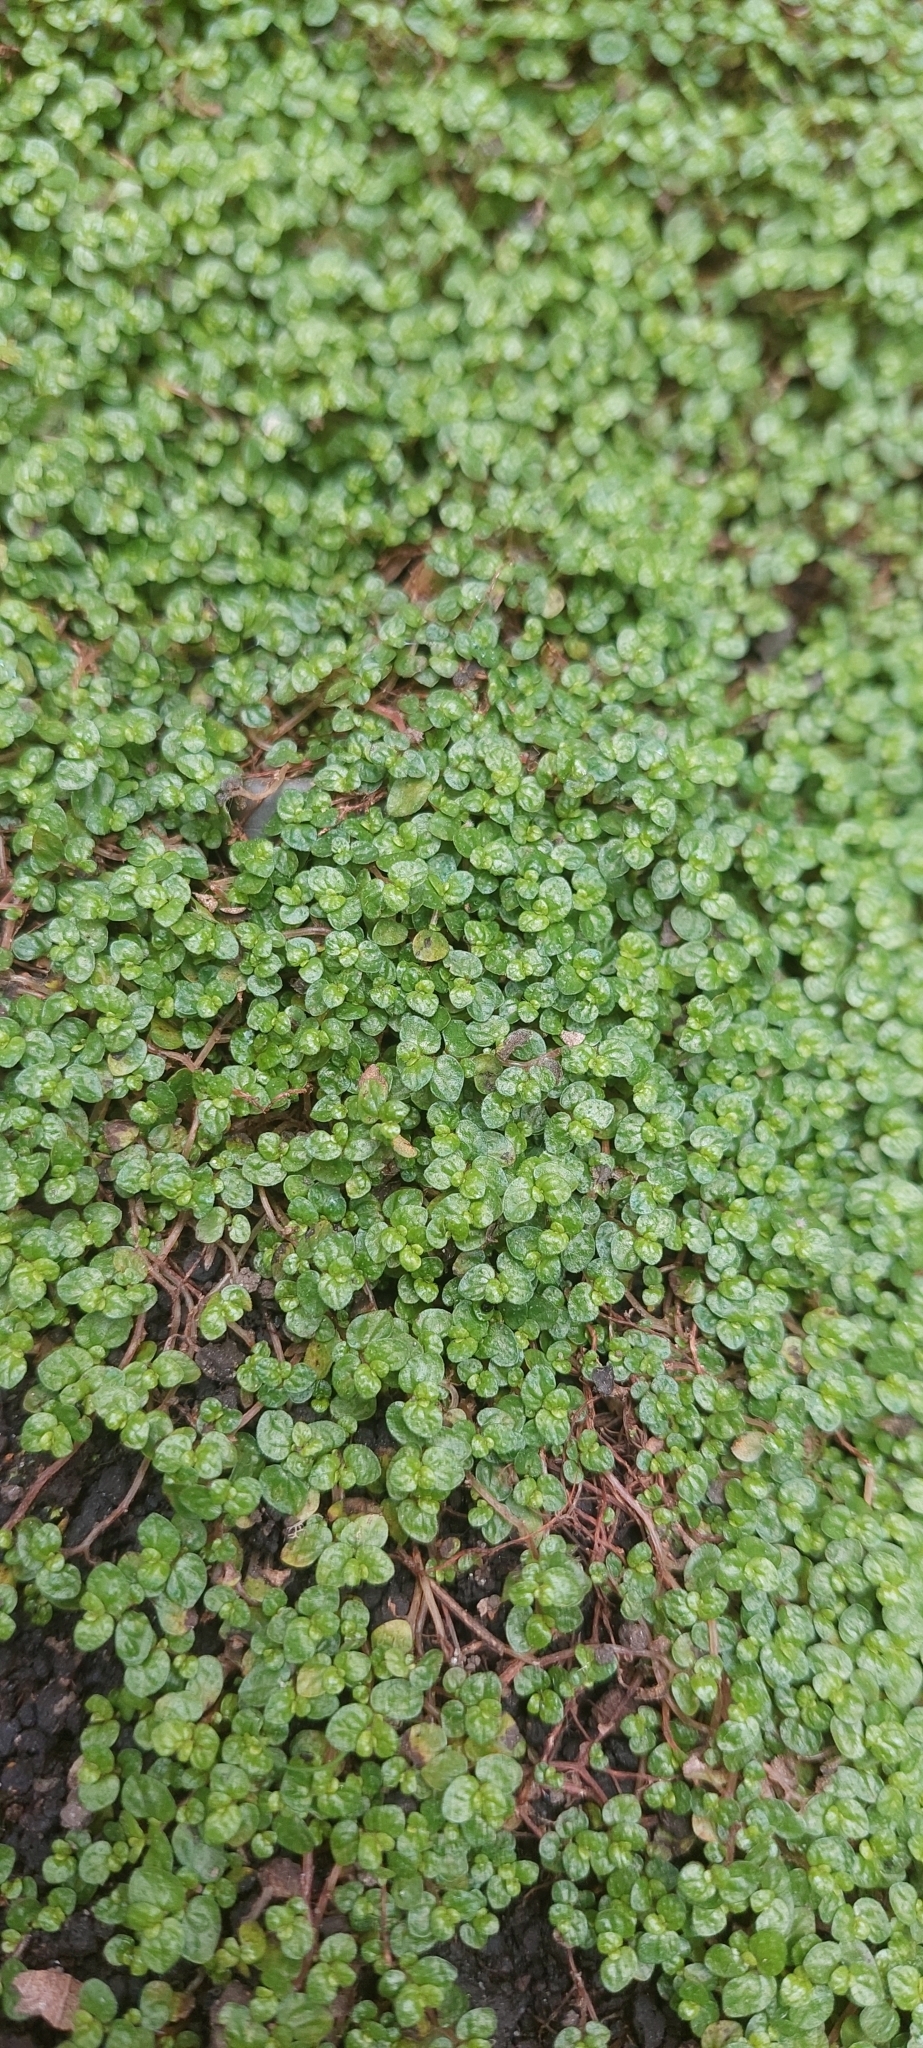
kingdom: Plantae
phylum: Tracheophyta
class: Magnoliopsida
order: Rosales
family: Urticaceae
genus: Soleirolia
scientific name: Soleirolia soleirolii
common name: Mind-your-own-business
